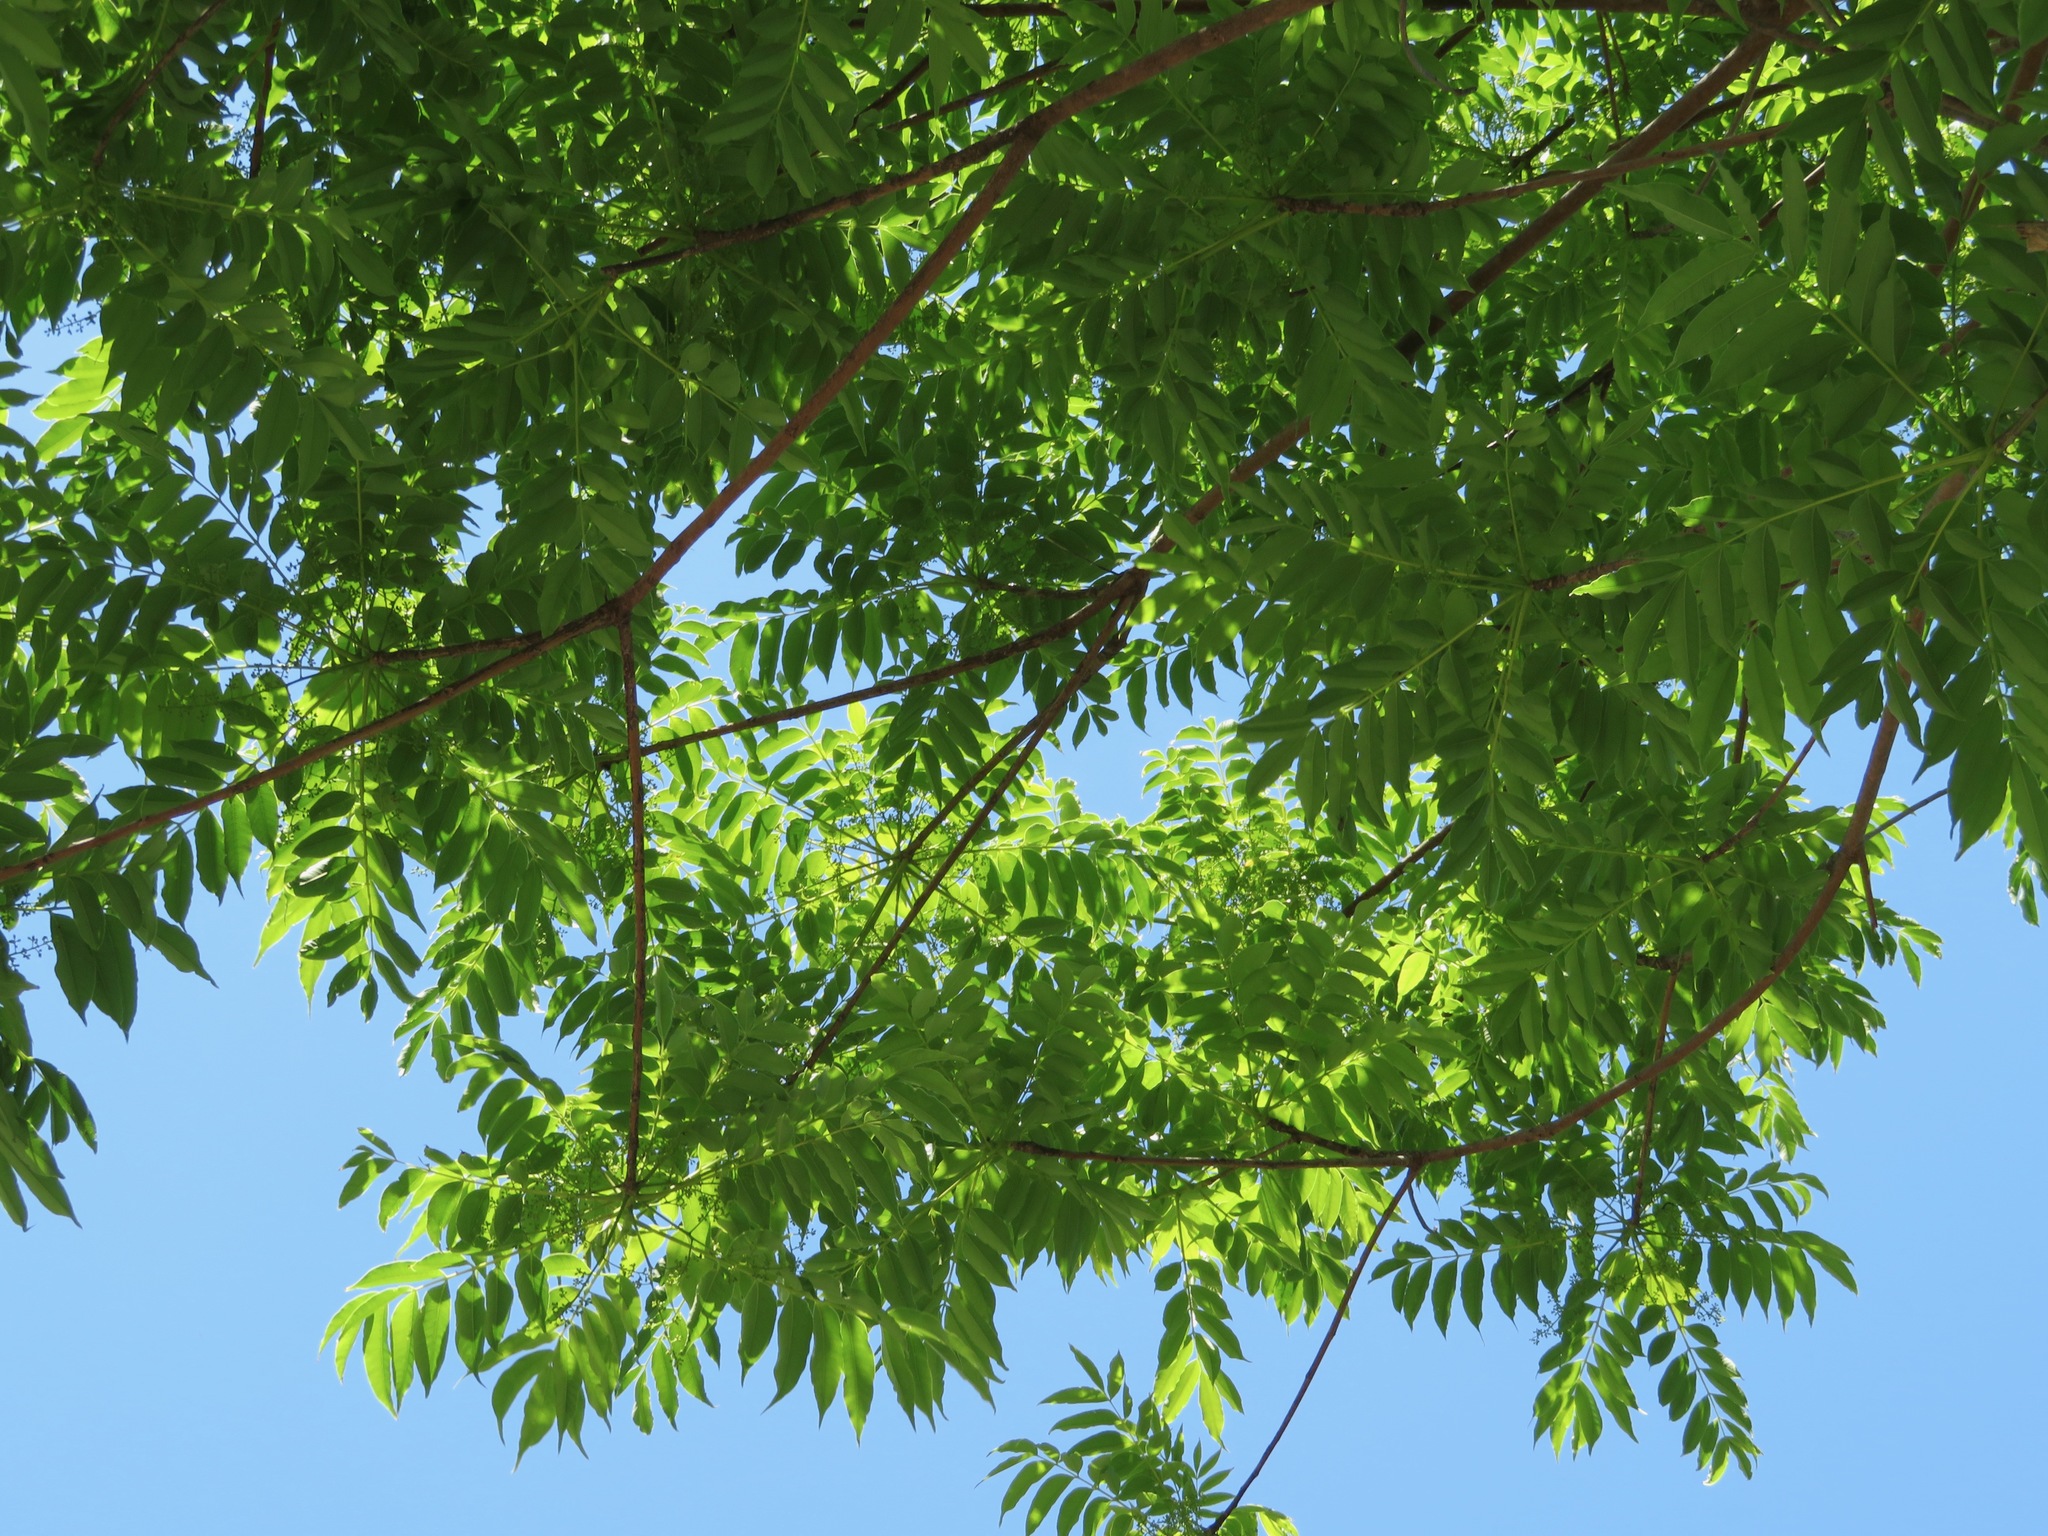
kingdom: Plantae
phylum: Tracheophyta
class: Magnoliopsida
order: Sapindales
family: Anacardiaceae
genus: Toxicodendron
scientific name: Toxicodendron succedaneum
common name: Wax tree
